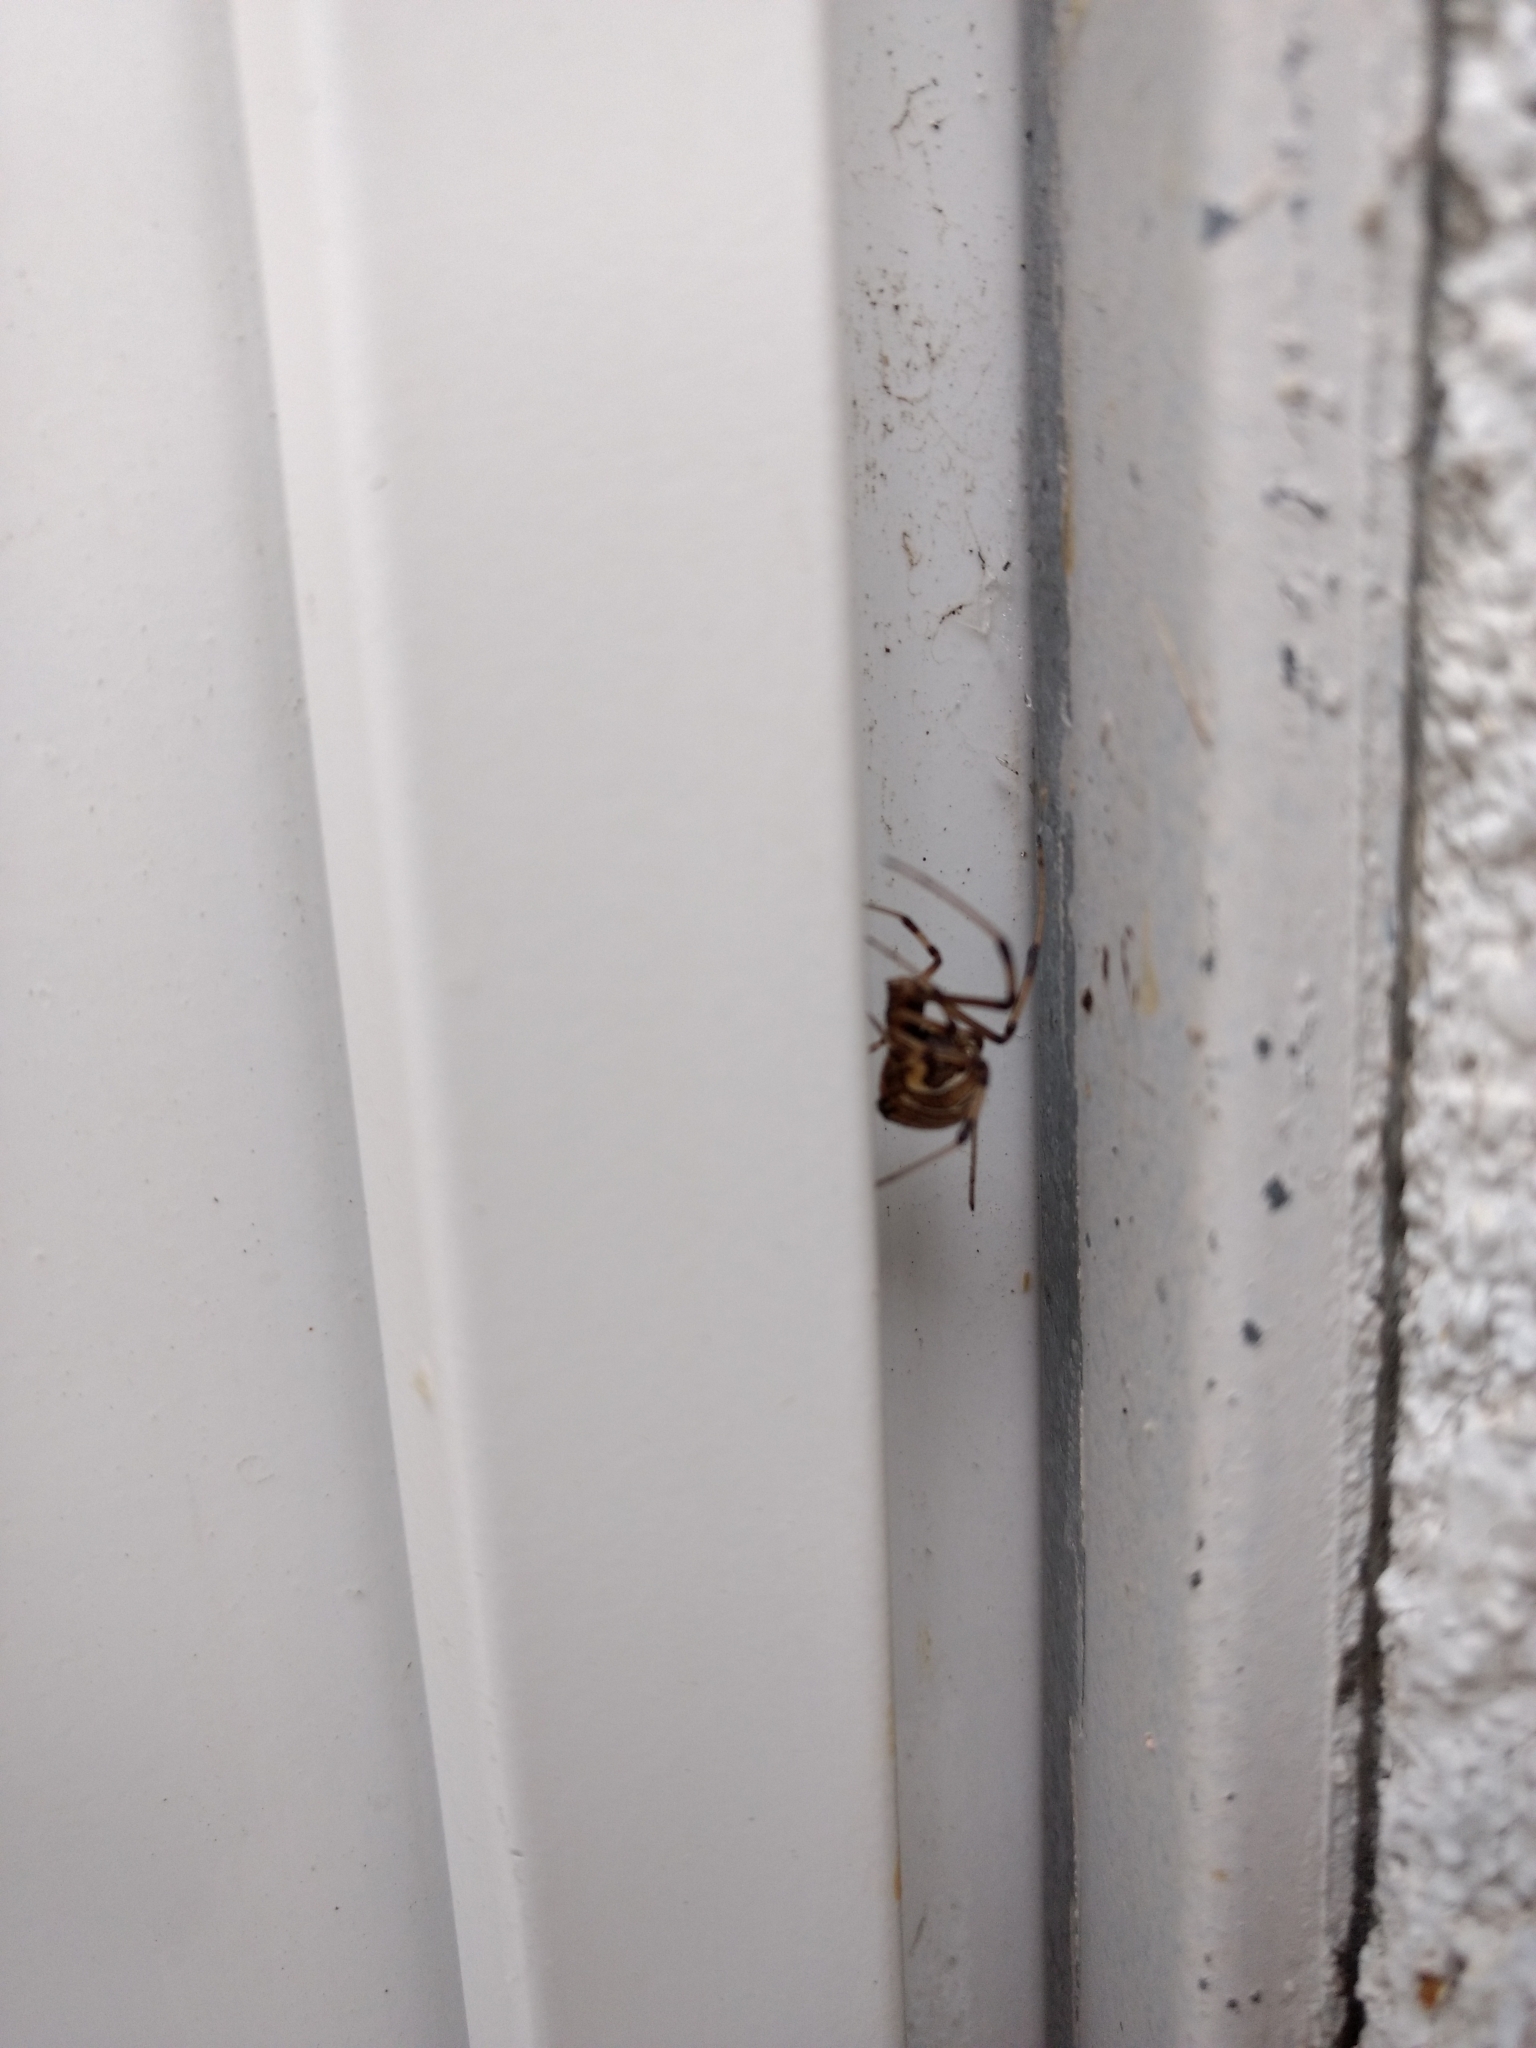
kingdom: Animalia
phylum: Arthropoda
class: Arachnida
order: Araneae
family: Theridiidae
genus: Latrodectus
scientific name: Latrodectus geometricus
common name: Brown widow spider
